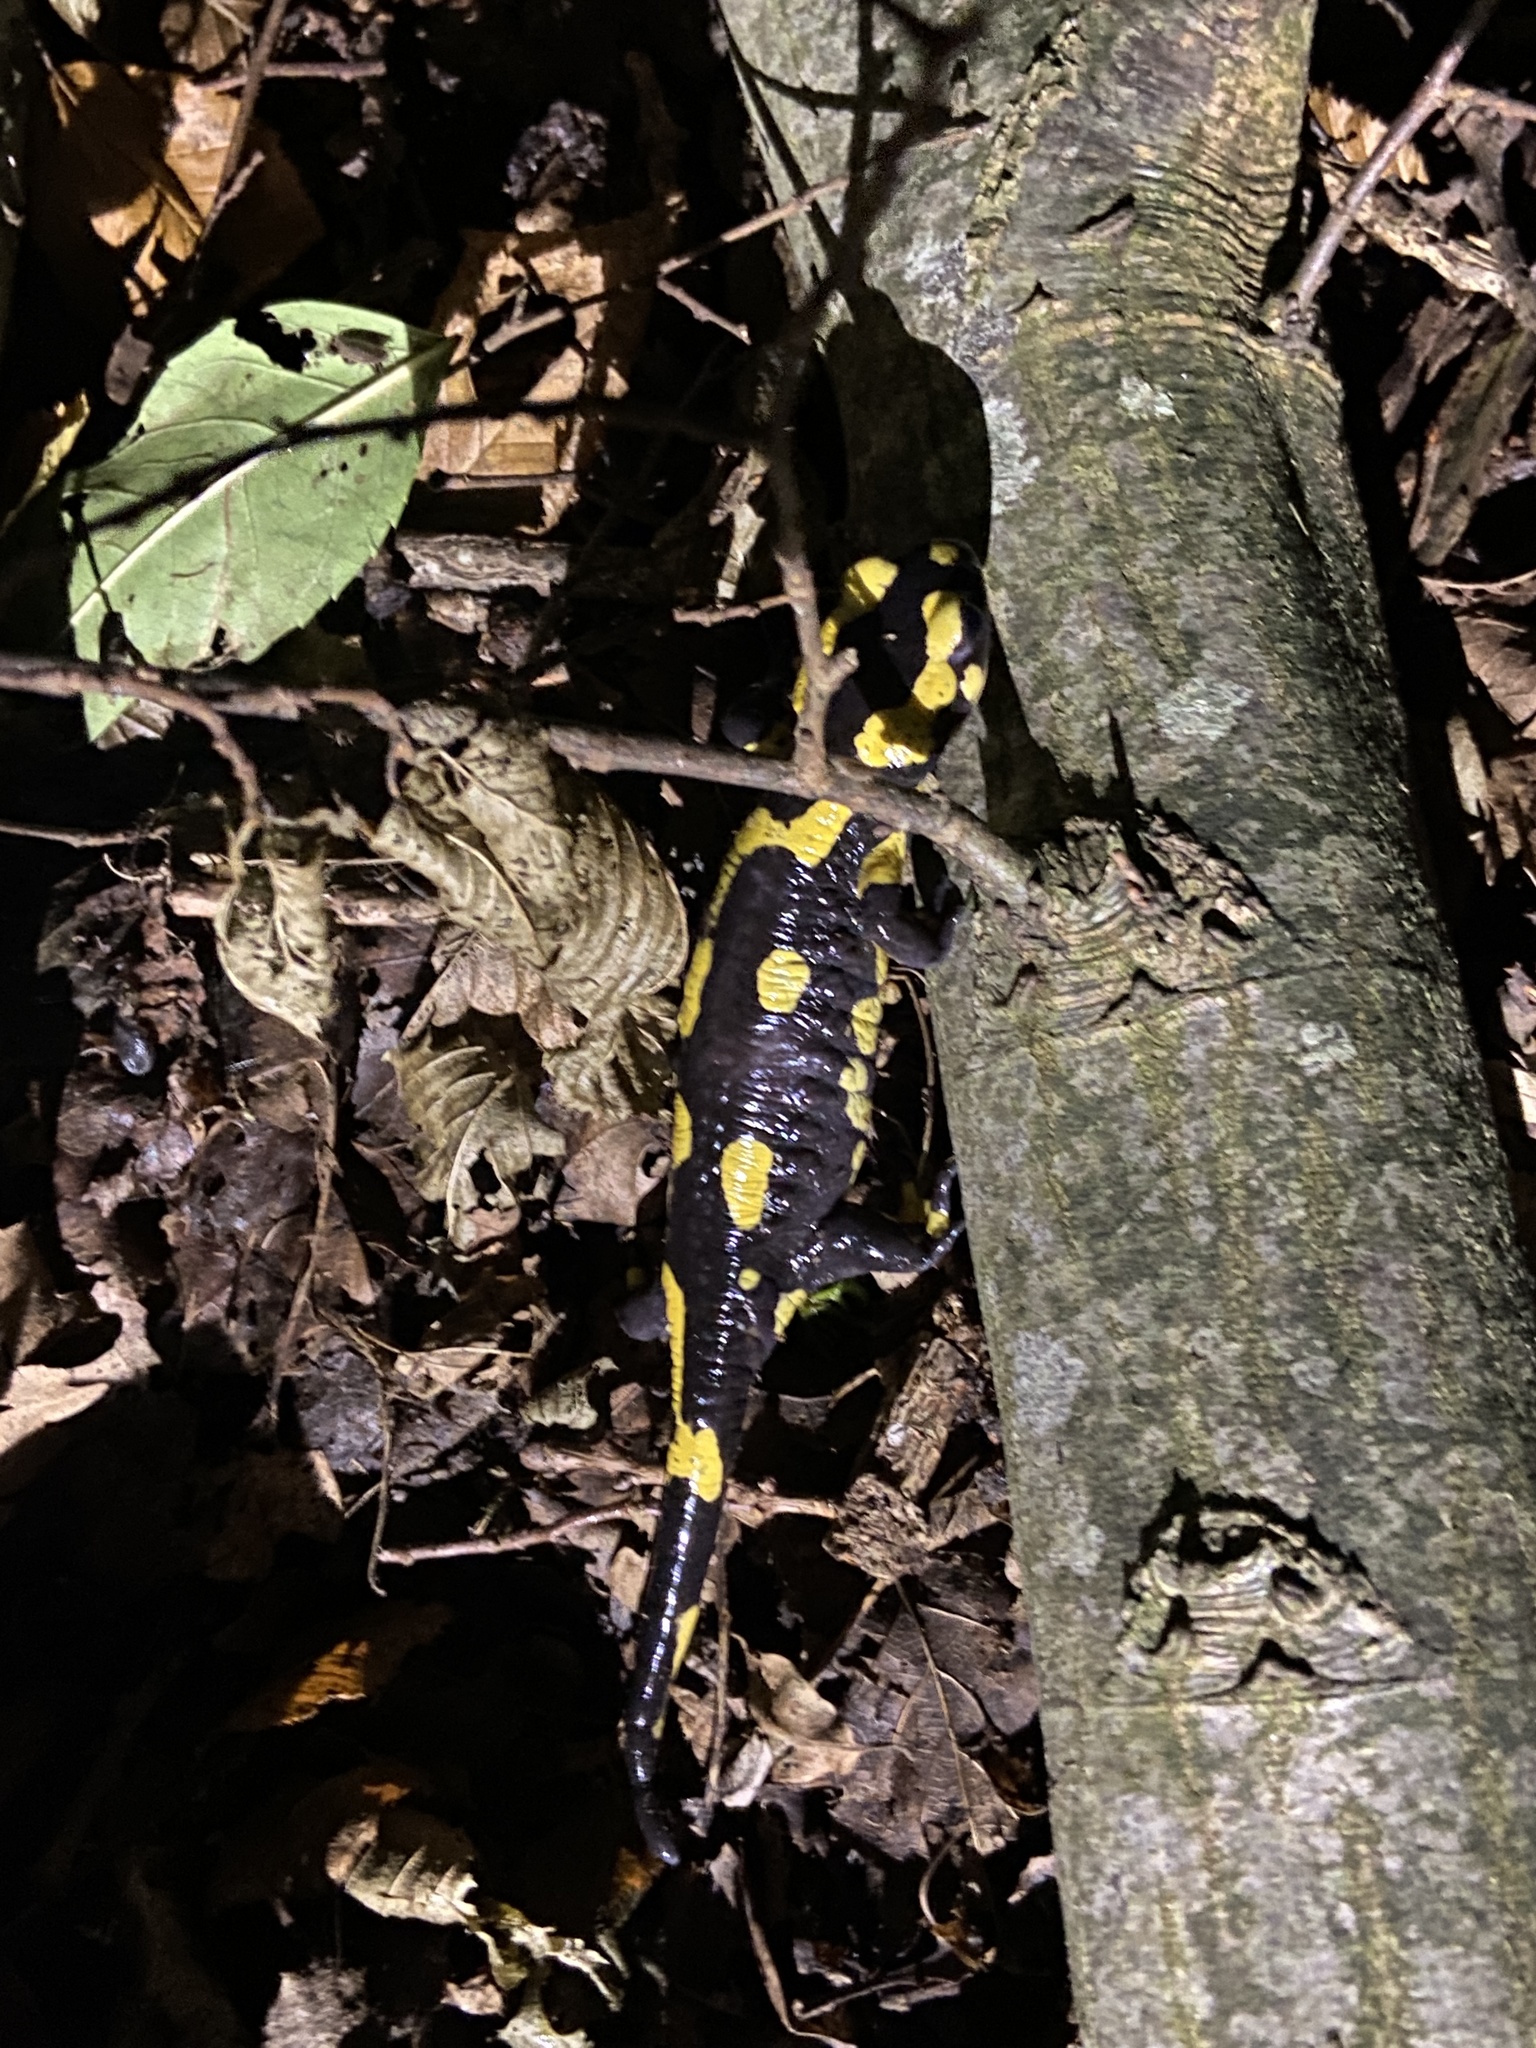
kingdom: Animalia
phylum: Chordata
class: Amphibia
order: Caudata
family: Salamandridae
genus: Salamandra
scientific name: Salamandra salamandra
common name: Fire salamander
